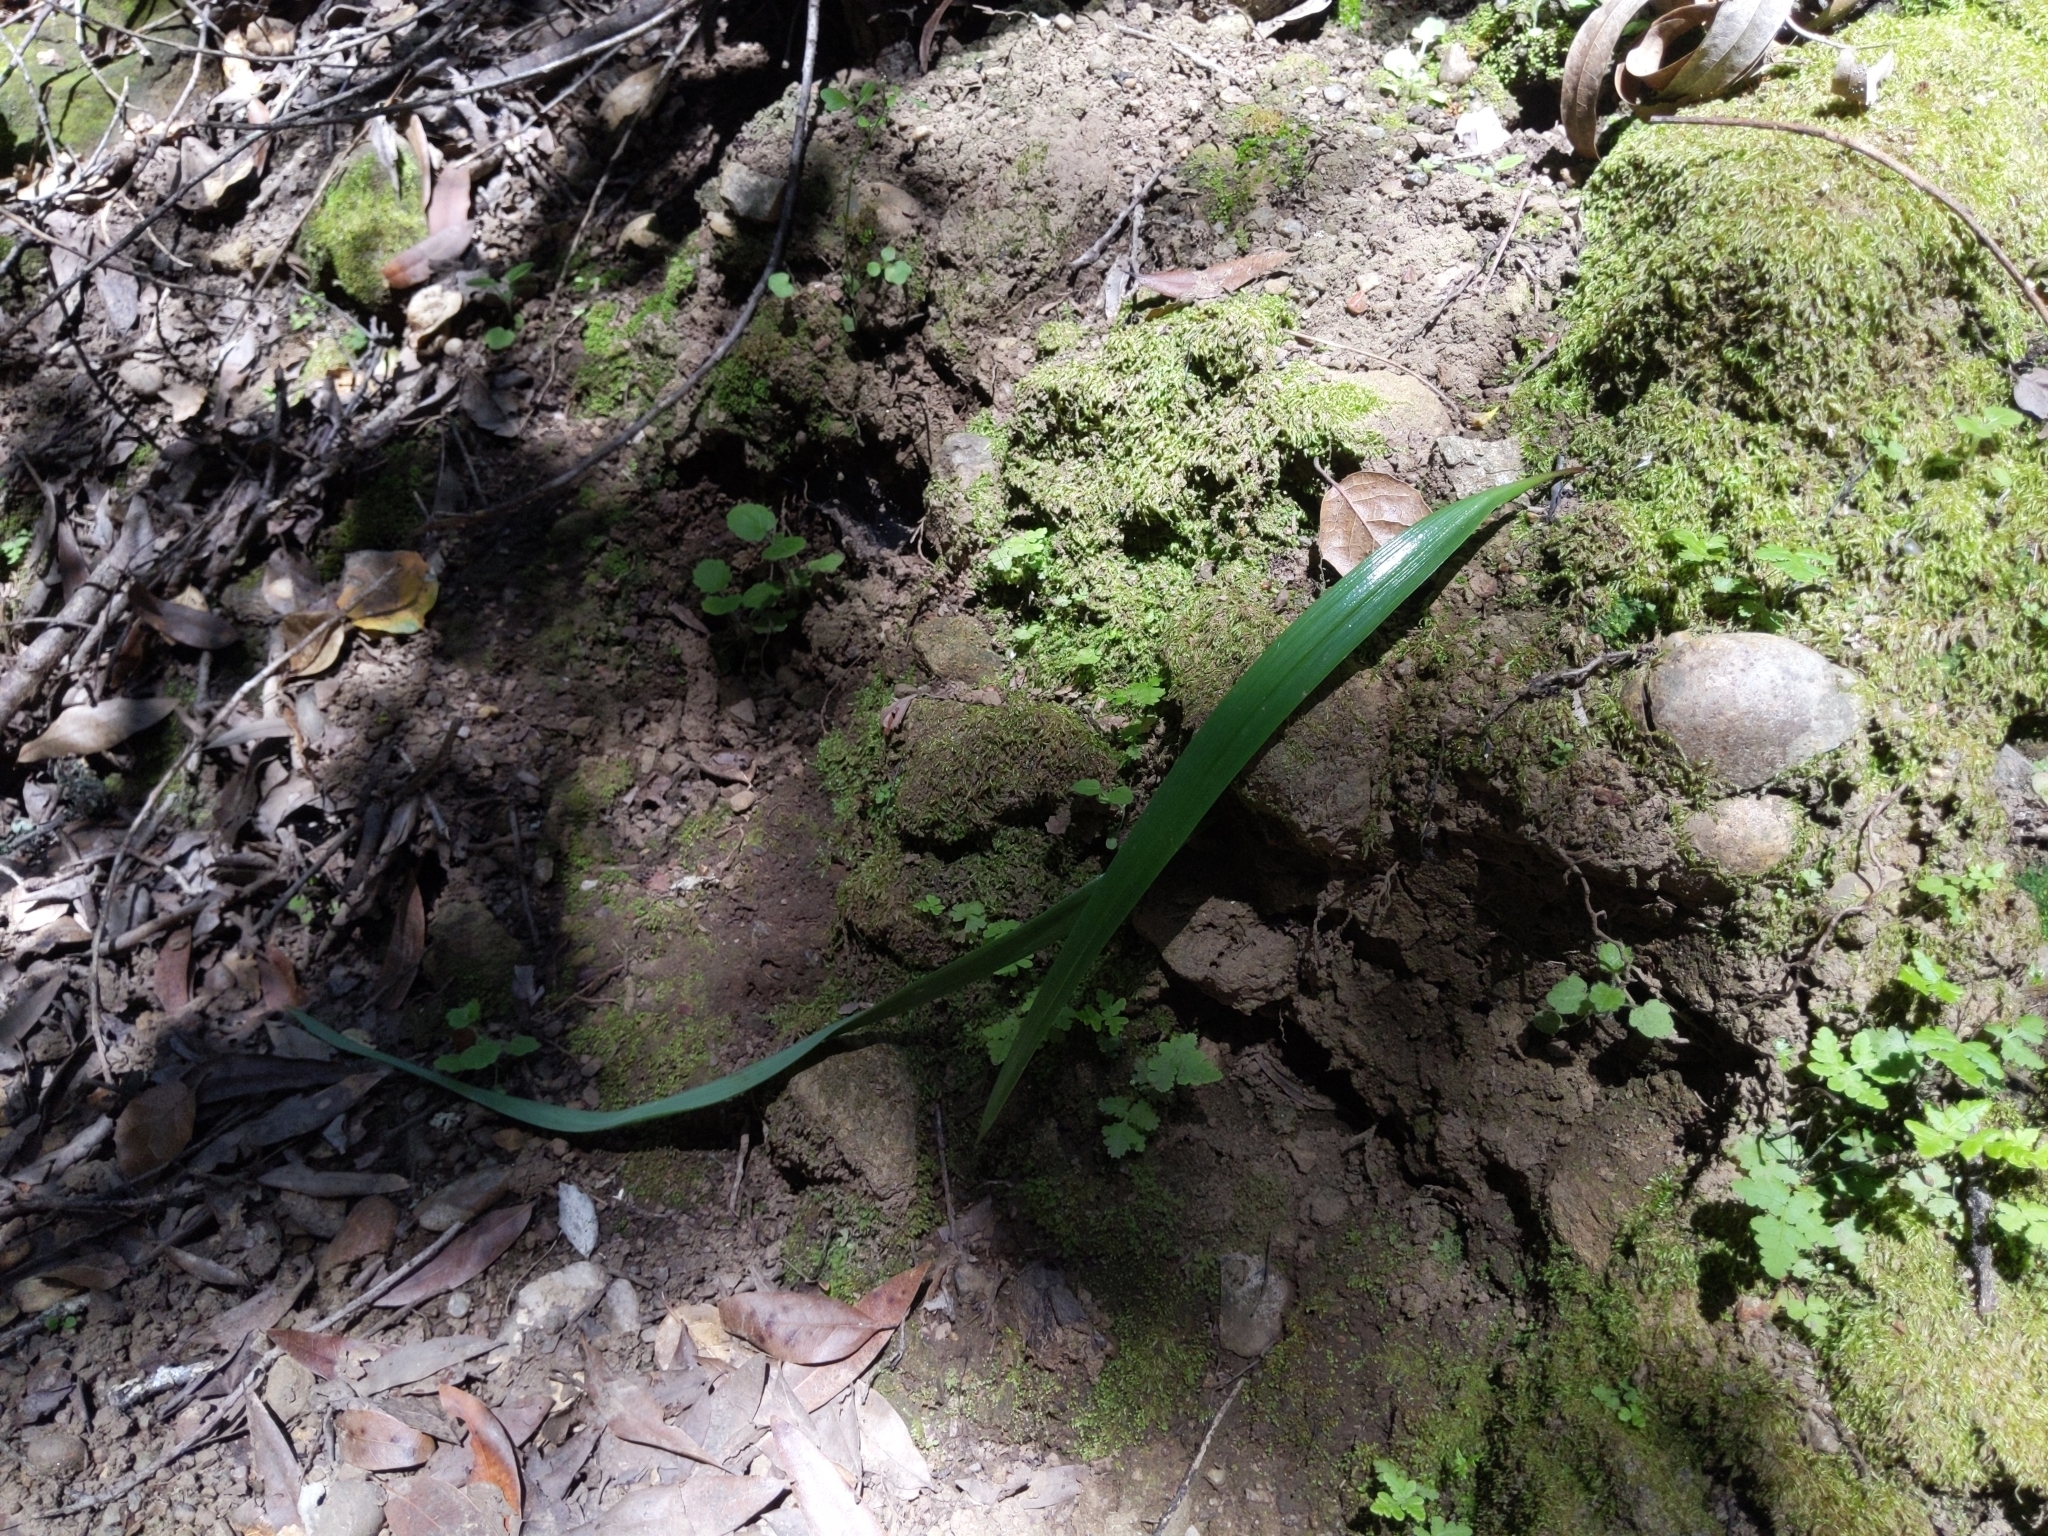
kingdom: Plantae
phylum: Tracheophyta
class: Liliopsida
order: Liliales
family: Liliaceae
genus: Calochortus
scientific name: Calochortus albus
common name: Fairy-lantern
